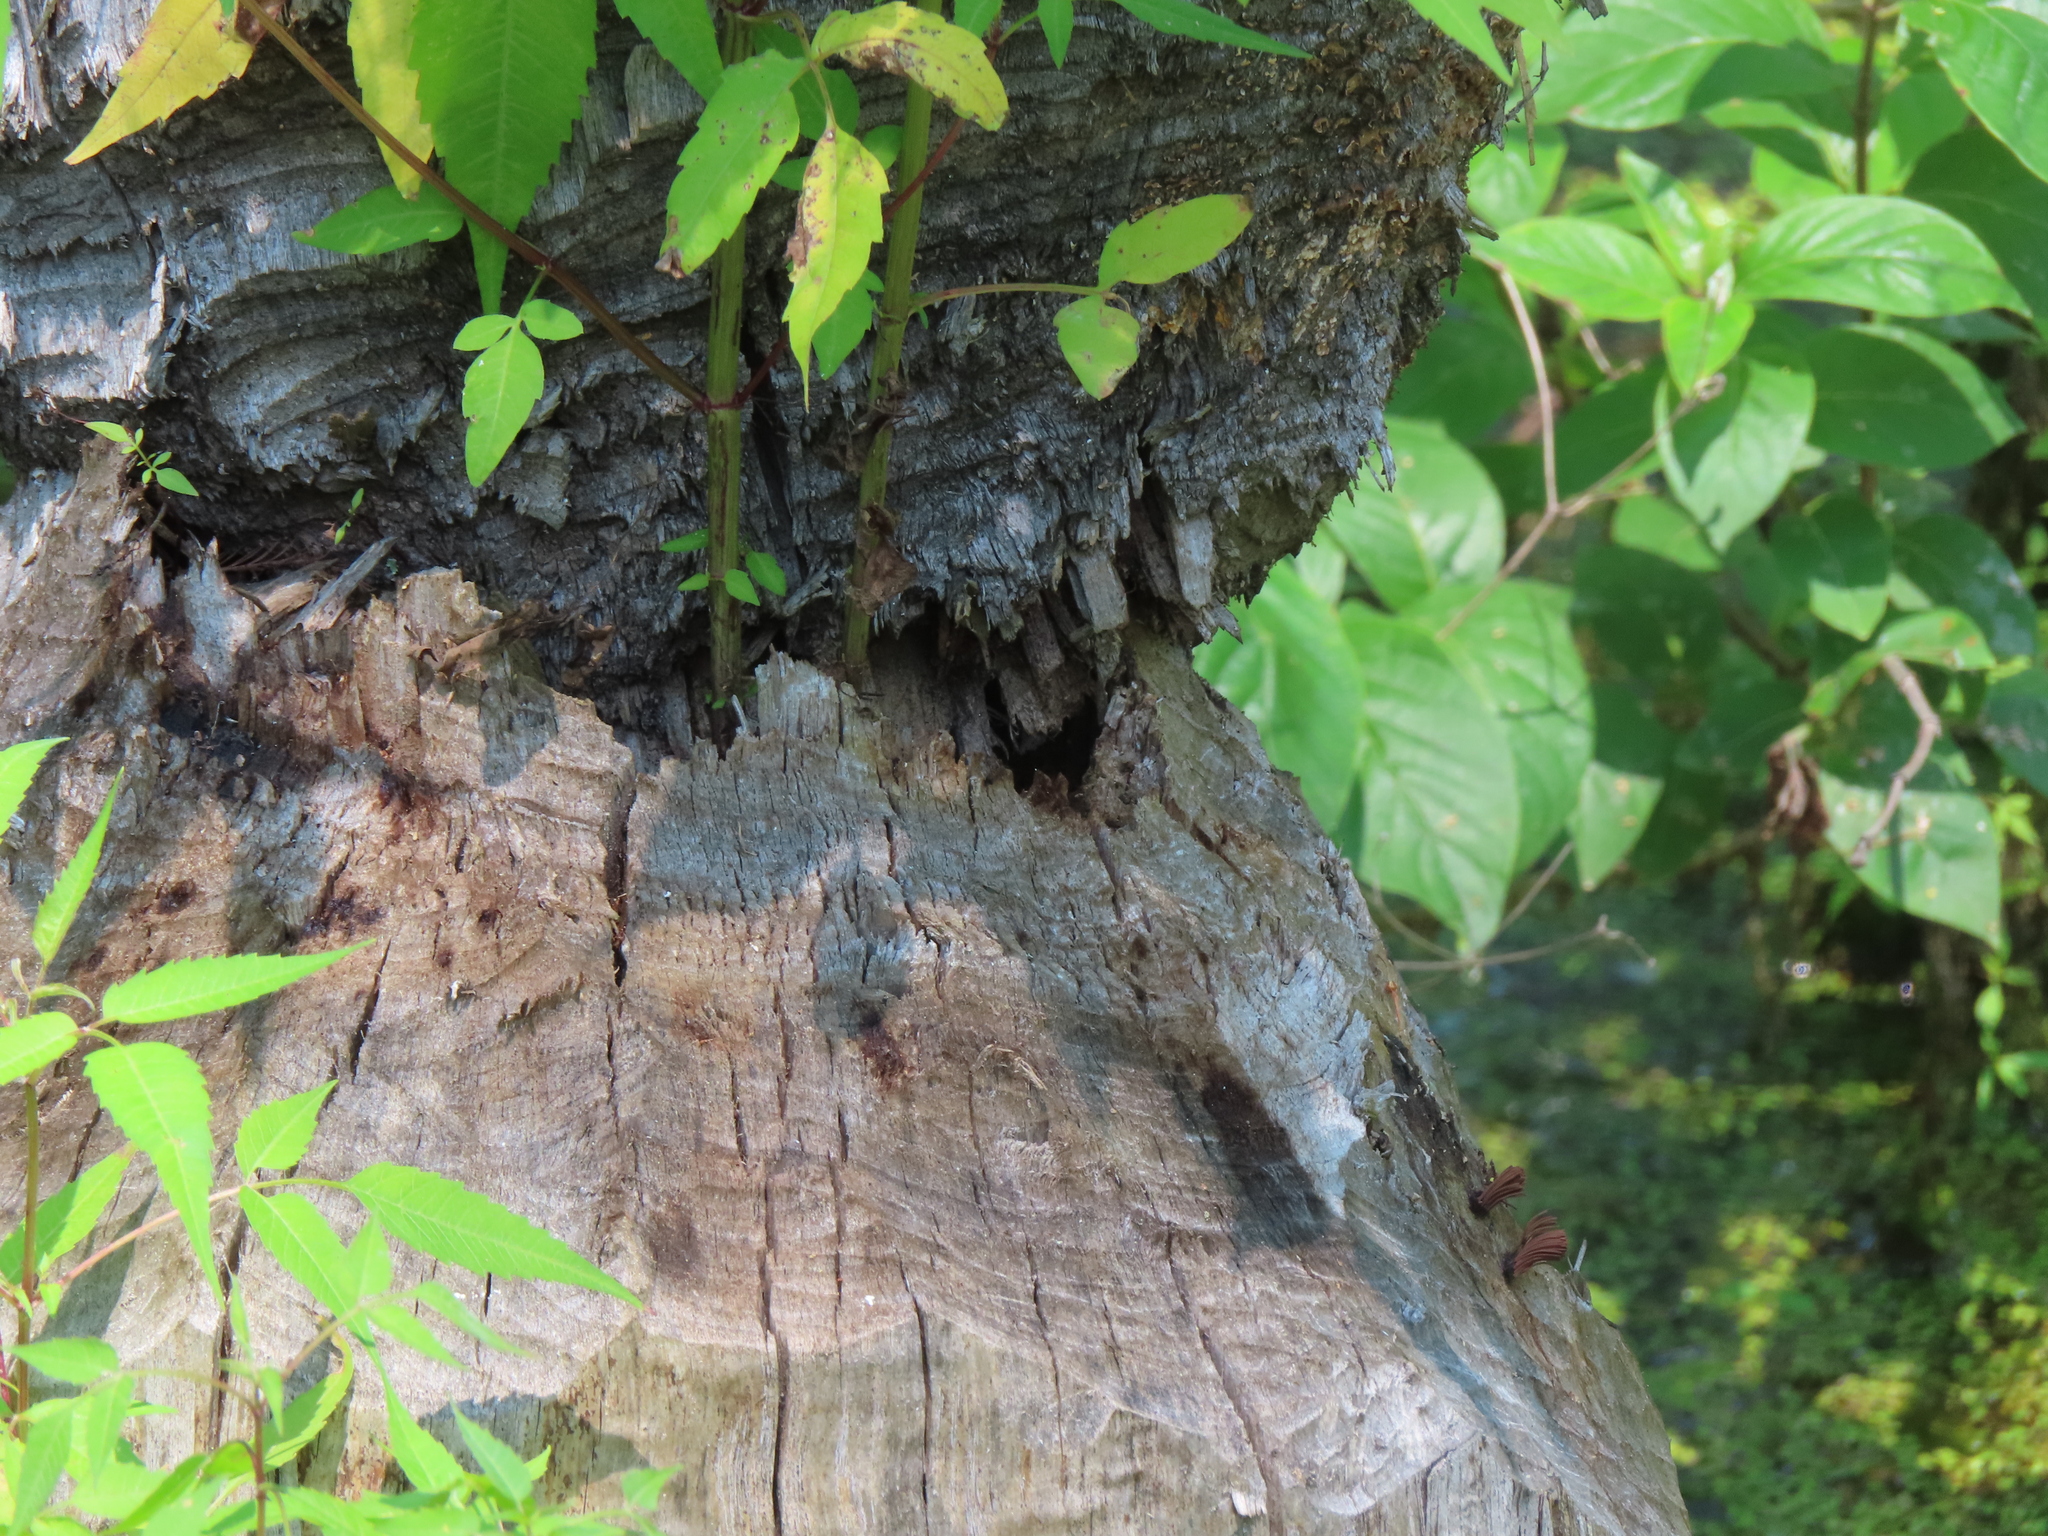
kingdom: Animalia
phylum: Chordata
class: Mammalia
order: Rodentia
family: Castoridae
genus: Castor
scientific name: Castor canadensis
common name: American beaver
